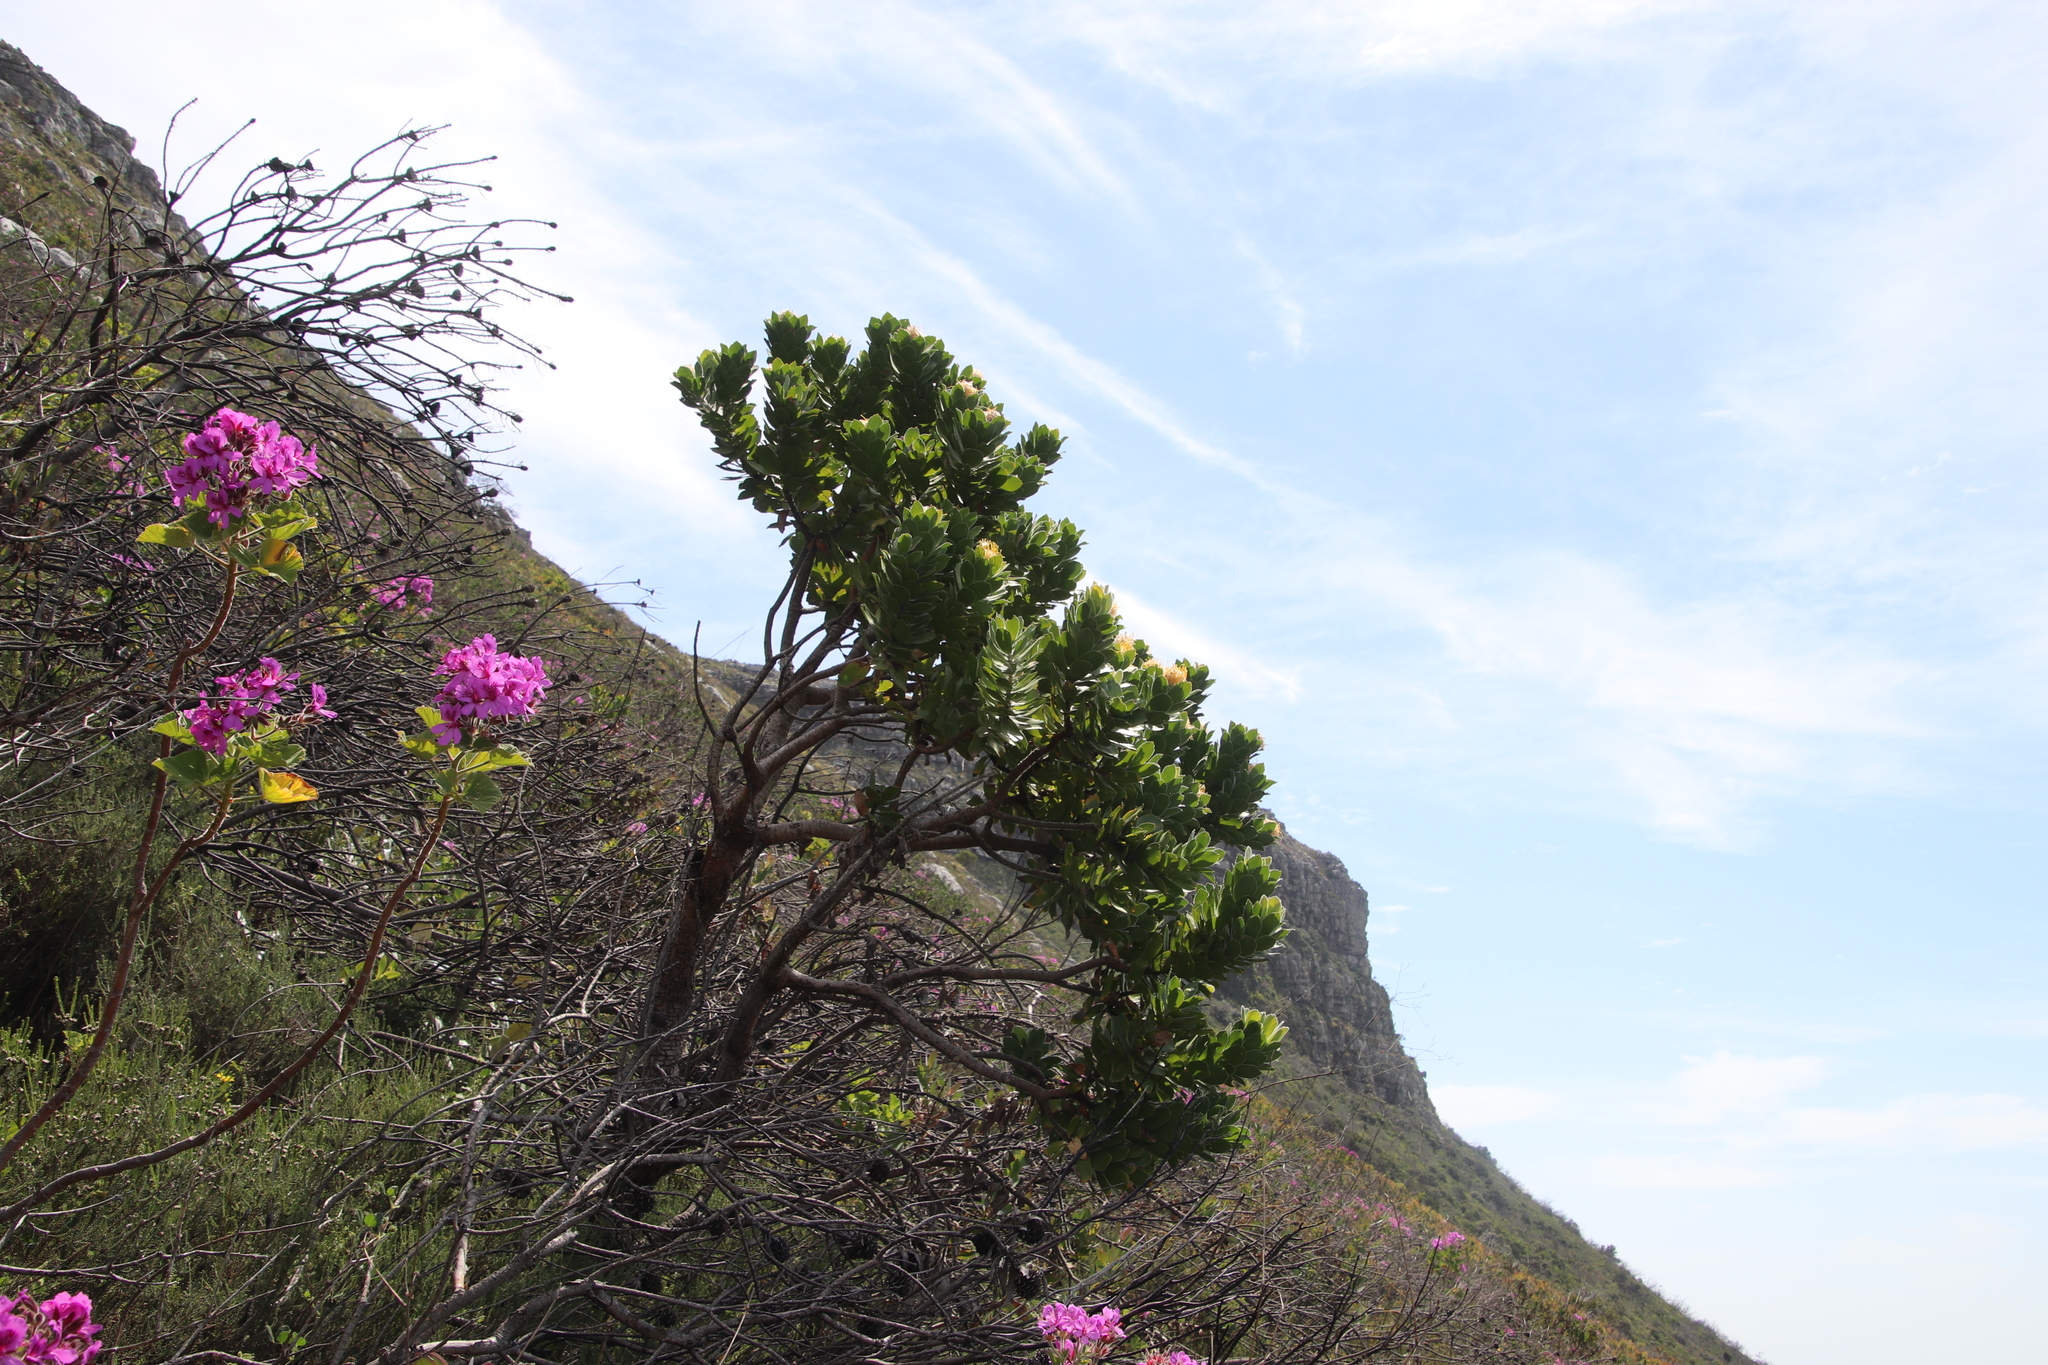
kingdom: Plantae
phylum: Tracheophyta
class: Magnoliopsida
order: Proteales
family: Proteaceae
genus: Leucospermum
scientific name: Leucospermum conocarpodendron
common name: Tree pincushion
